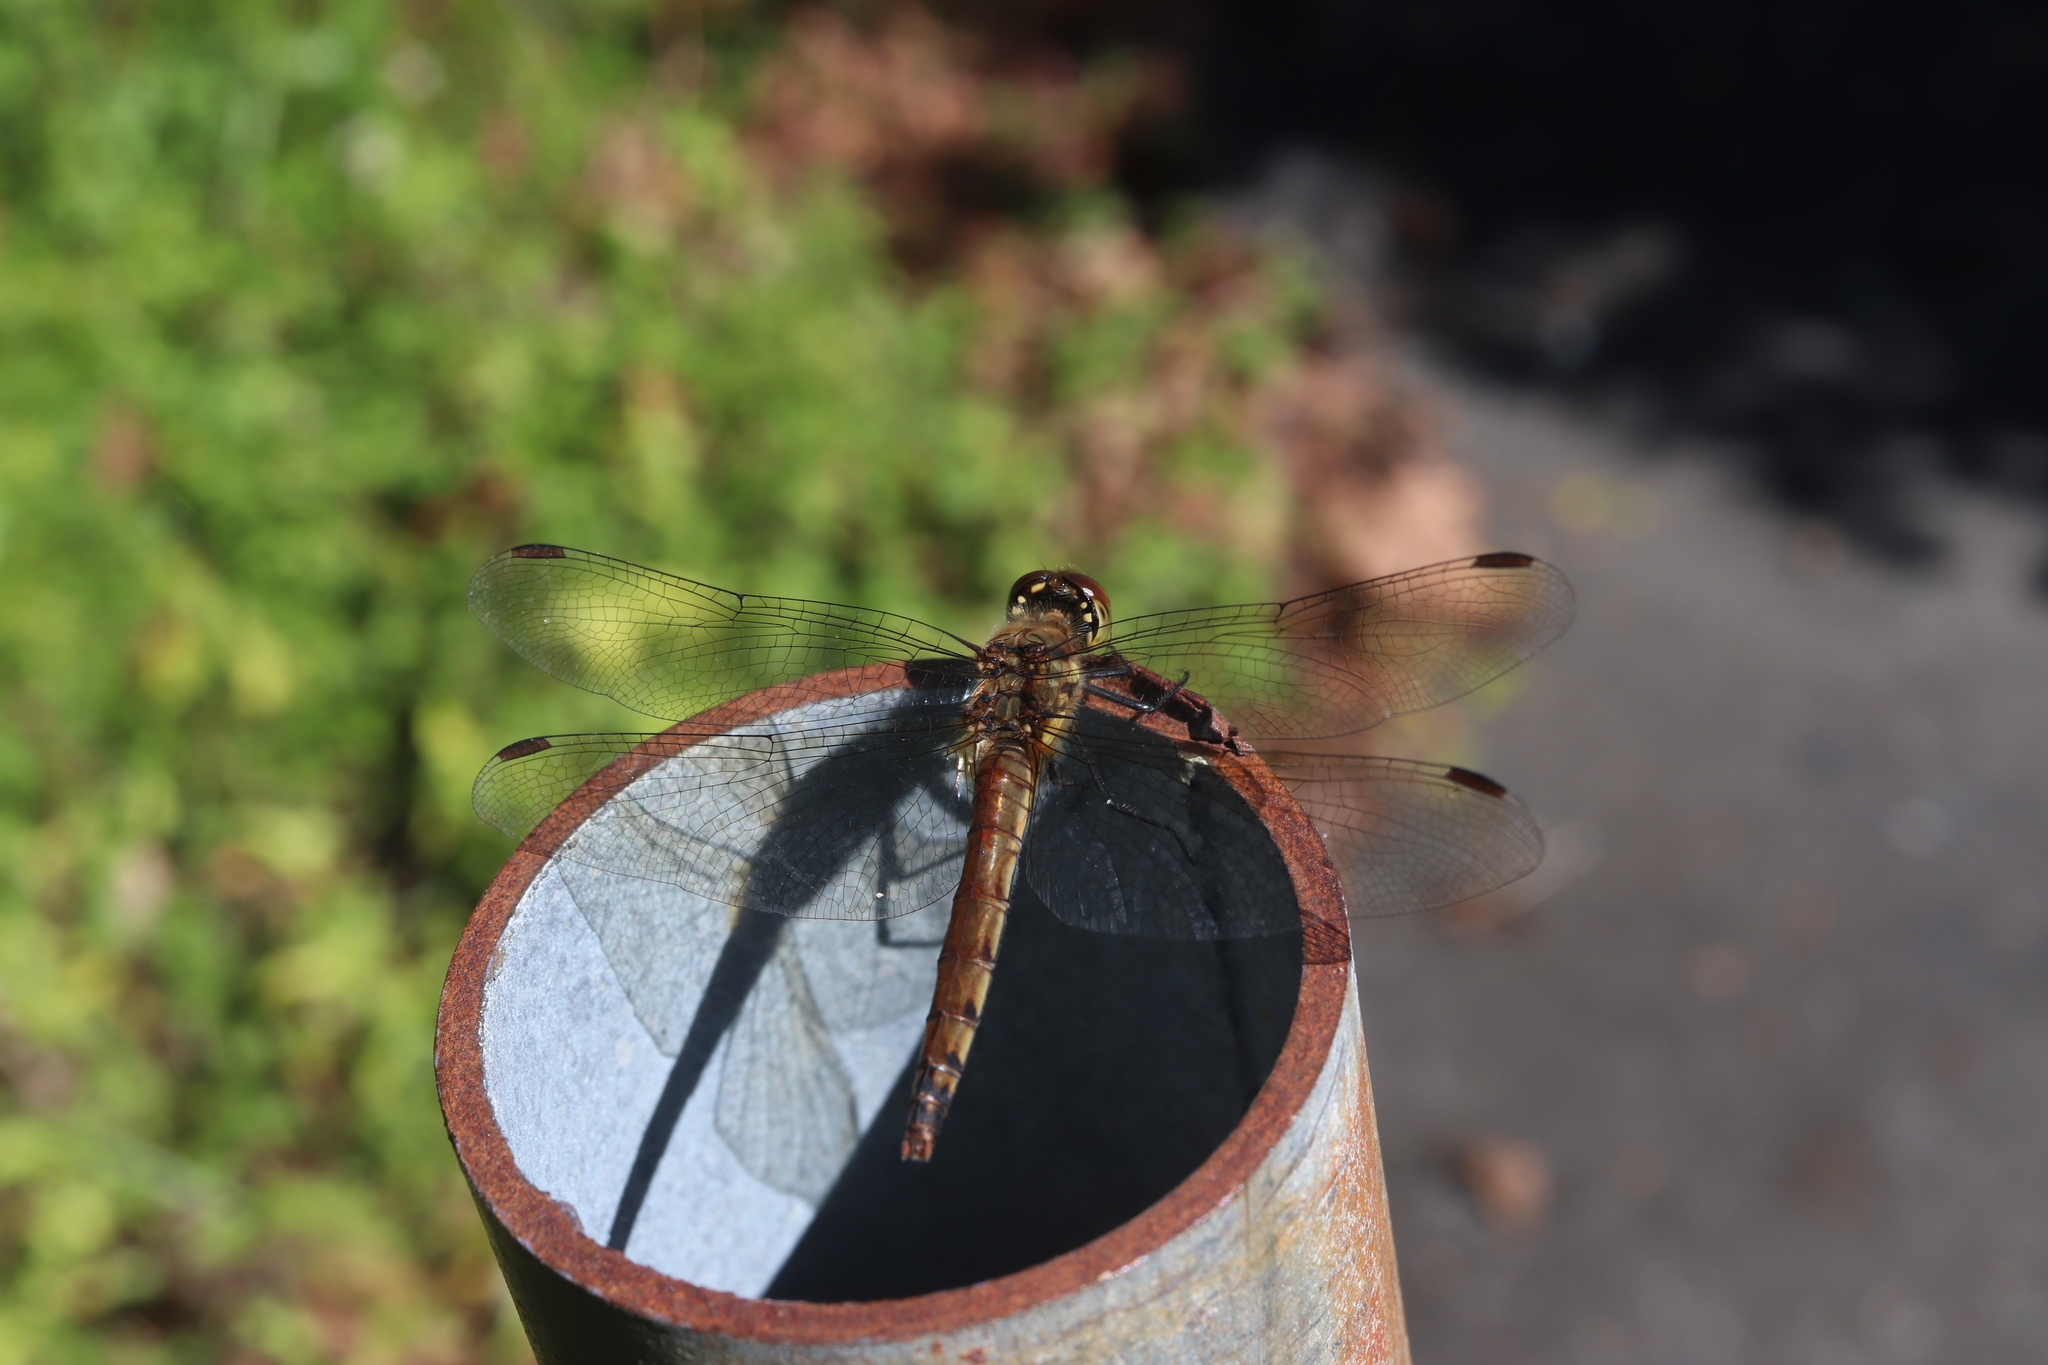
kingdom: Animalia
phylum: Arthropoda
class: Insecta
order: Odonata
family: Libellulidae
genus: Sympetrum
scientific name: Sympetrum frequens
